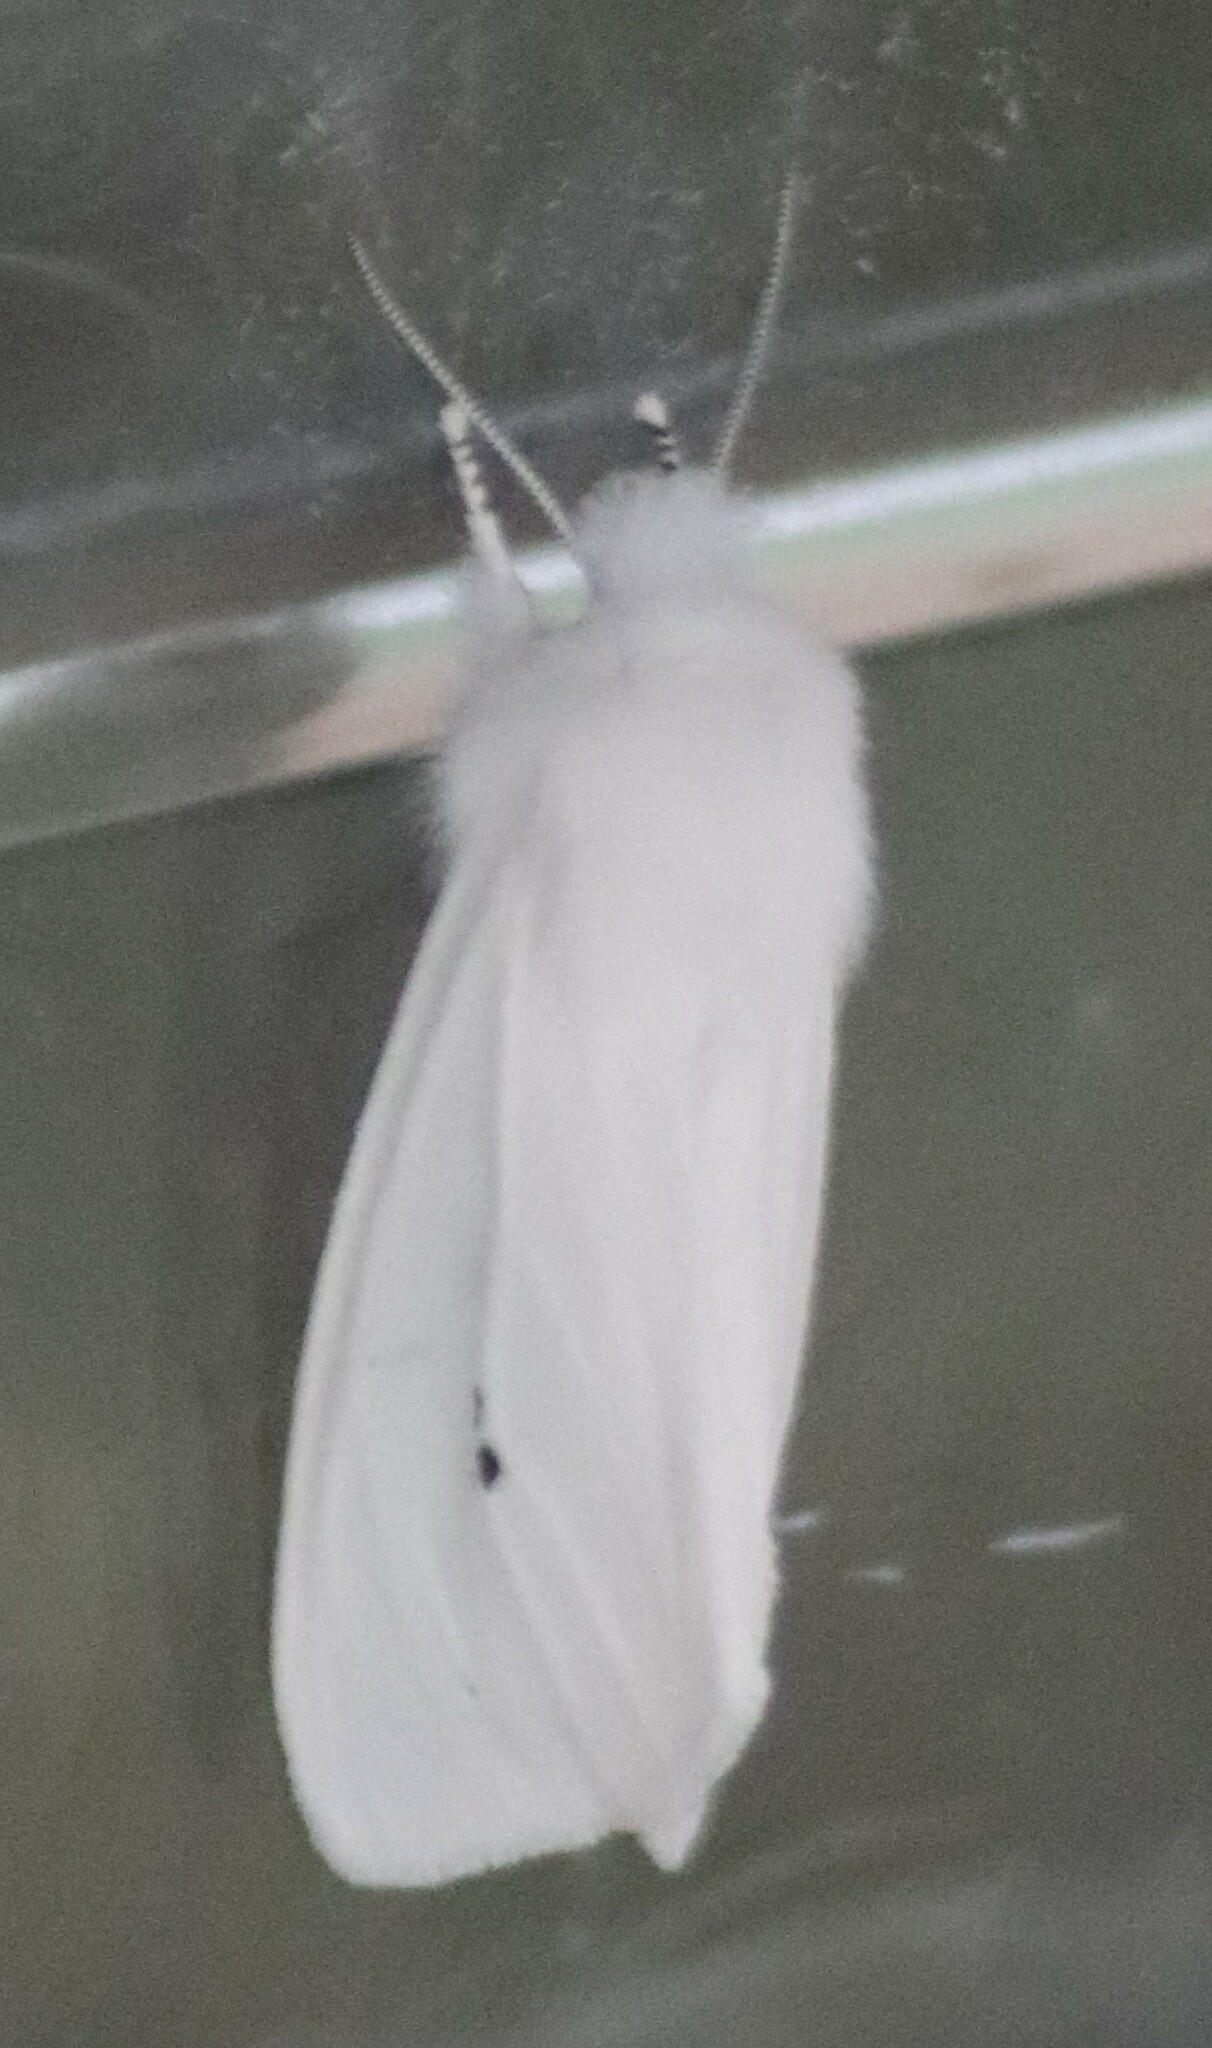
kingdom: Animalia
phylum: Arthropoda
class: Insecta
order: Lepidoptera
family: Erebidae
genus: Spilosoma
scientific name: Spilosoma virginica
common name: Virginia tiger moth
